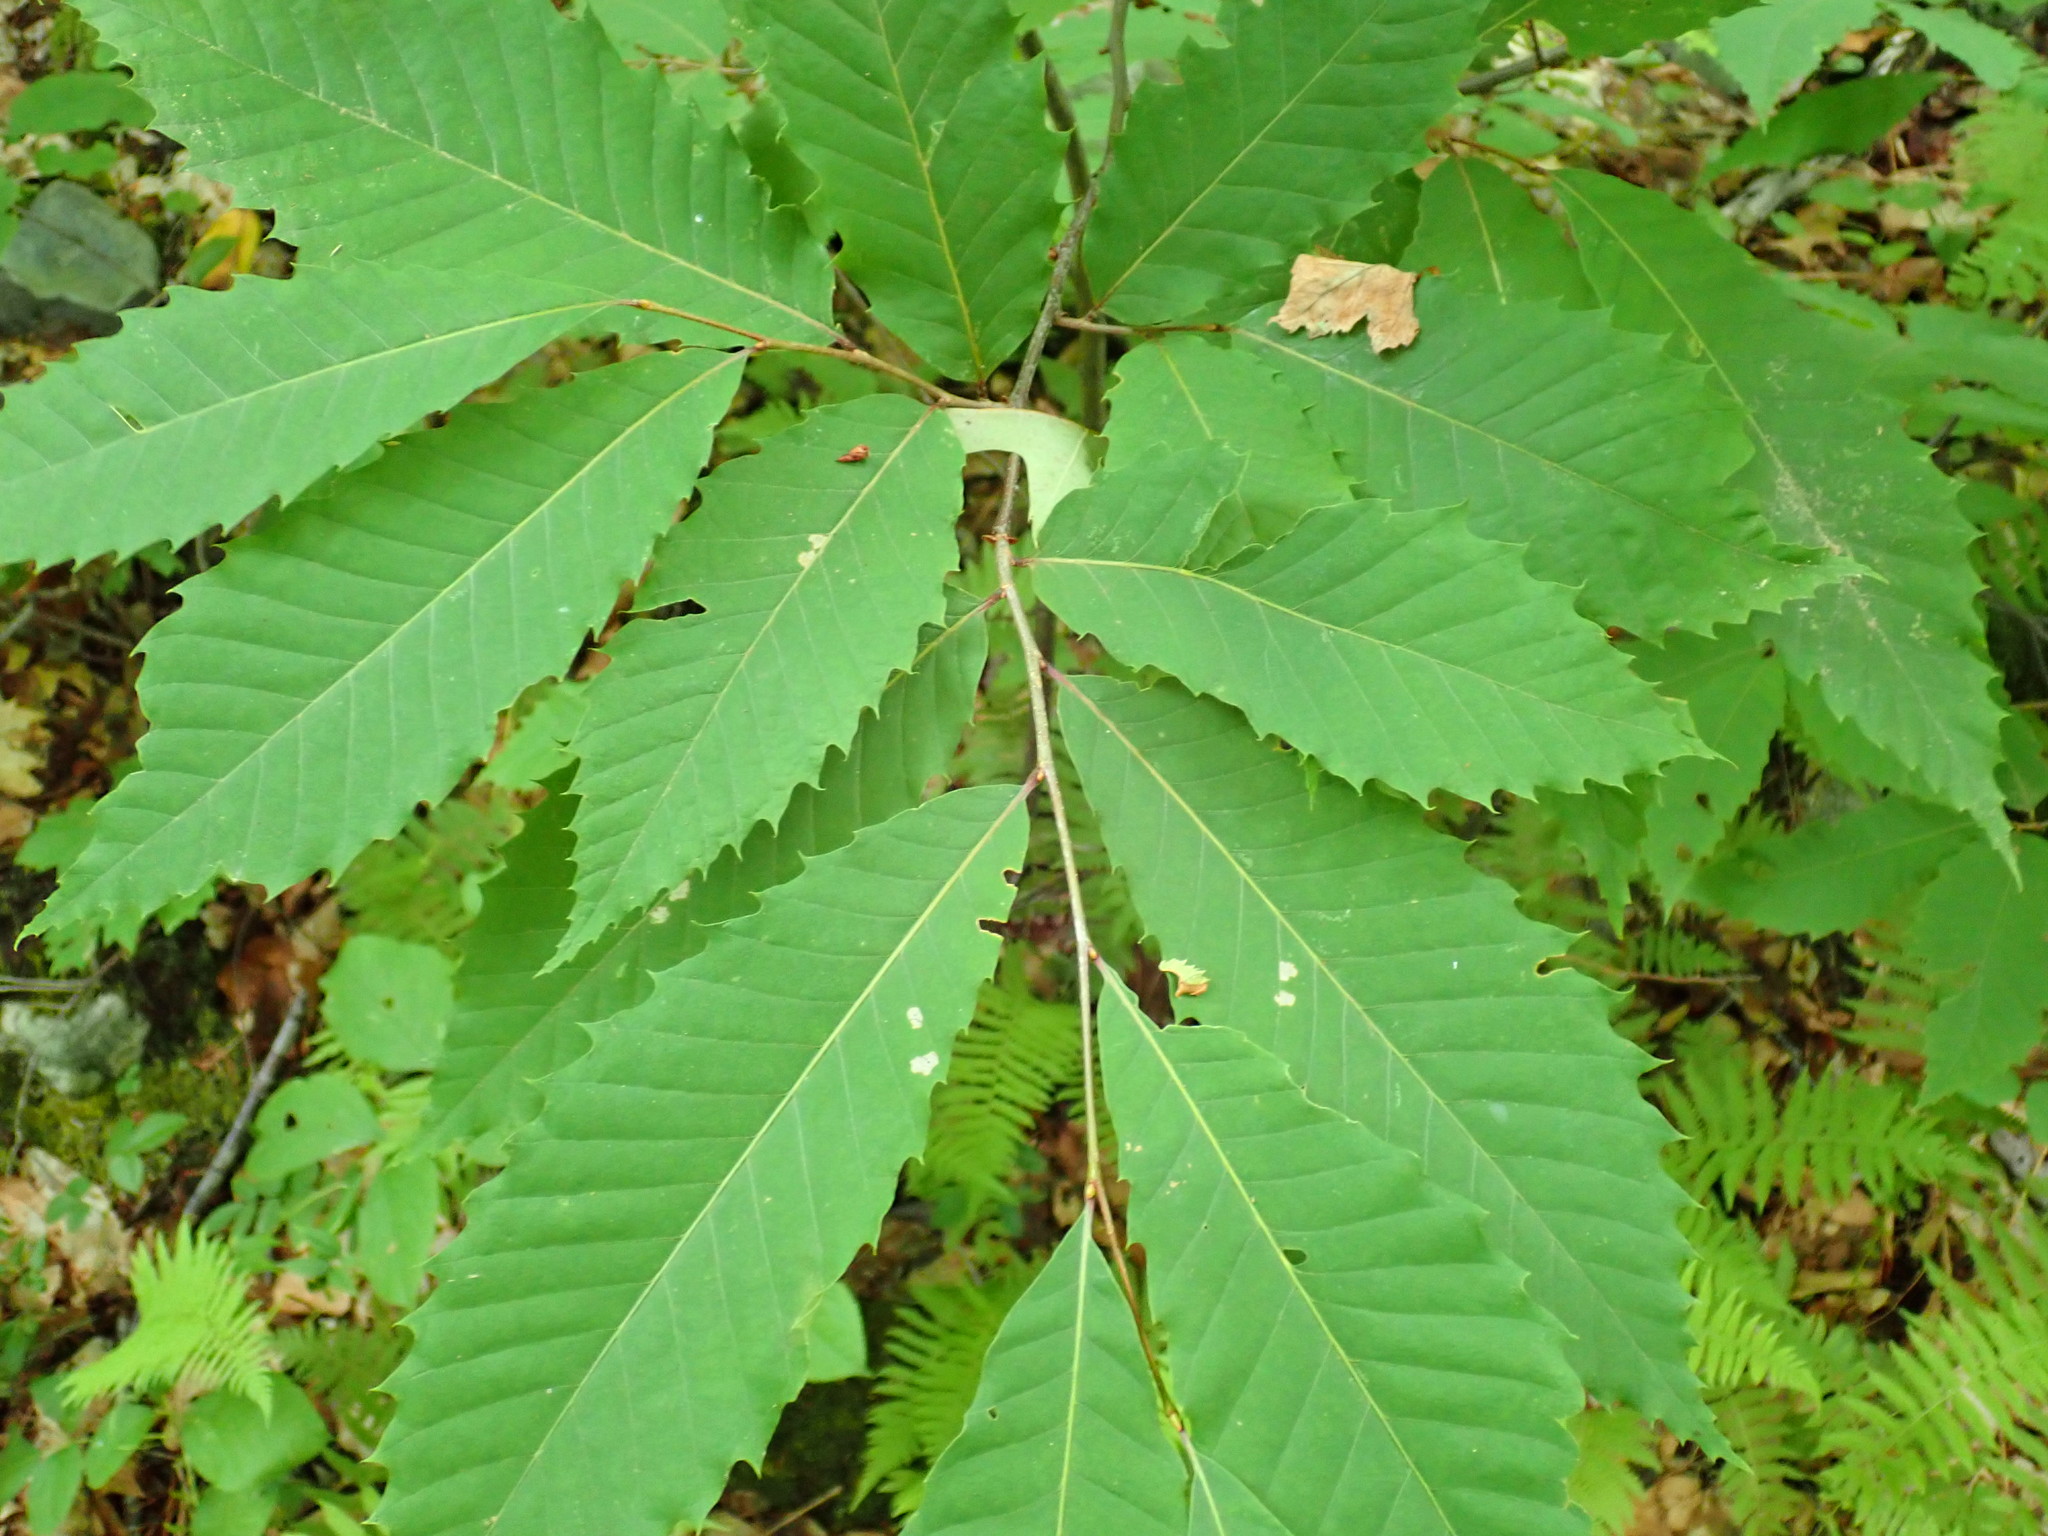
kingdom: Plantae
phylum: Tracheophyta
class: Magnoliopsida
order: Fagales
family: Fagaceae
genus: Castanea
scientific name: Castanea dentata
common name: American chestnut
